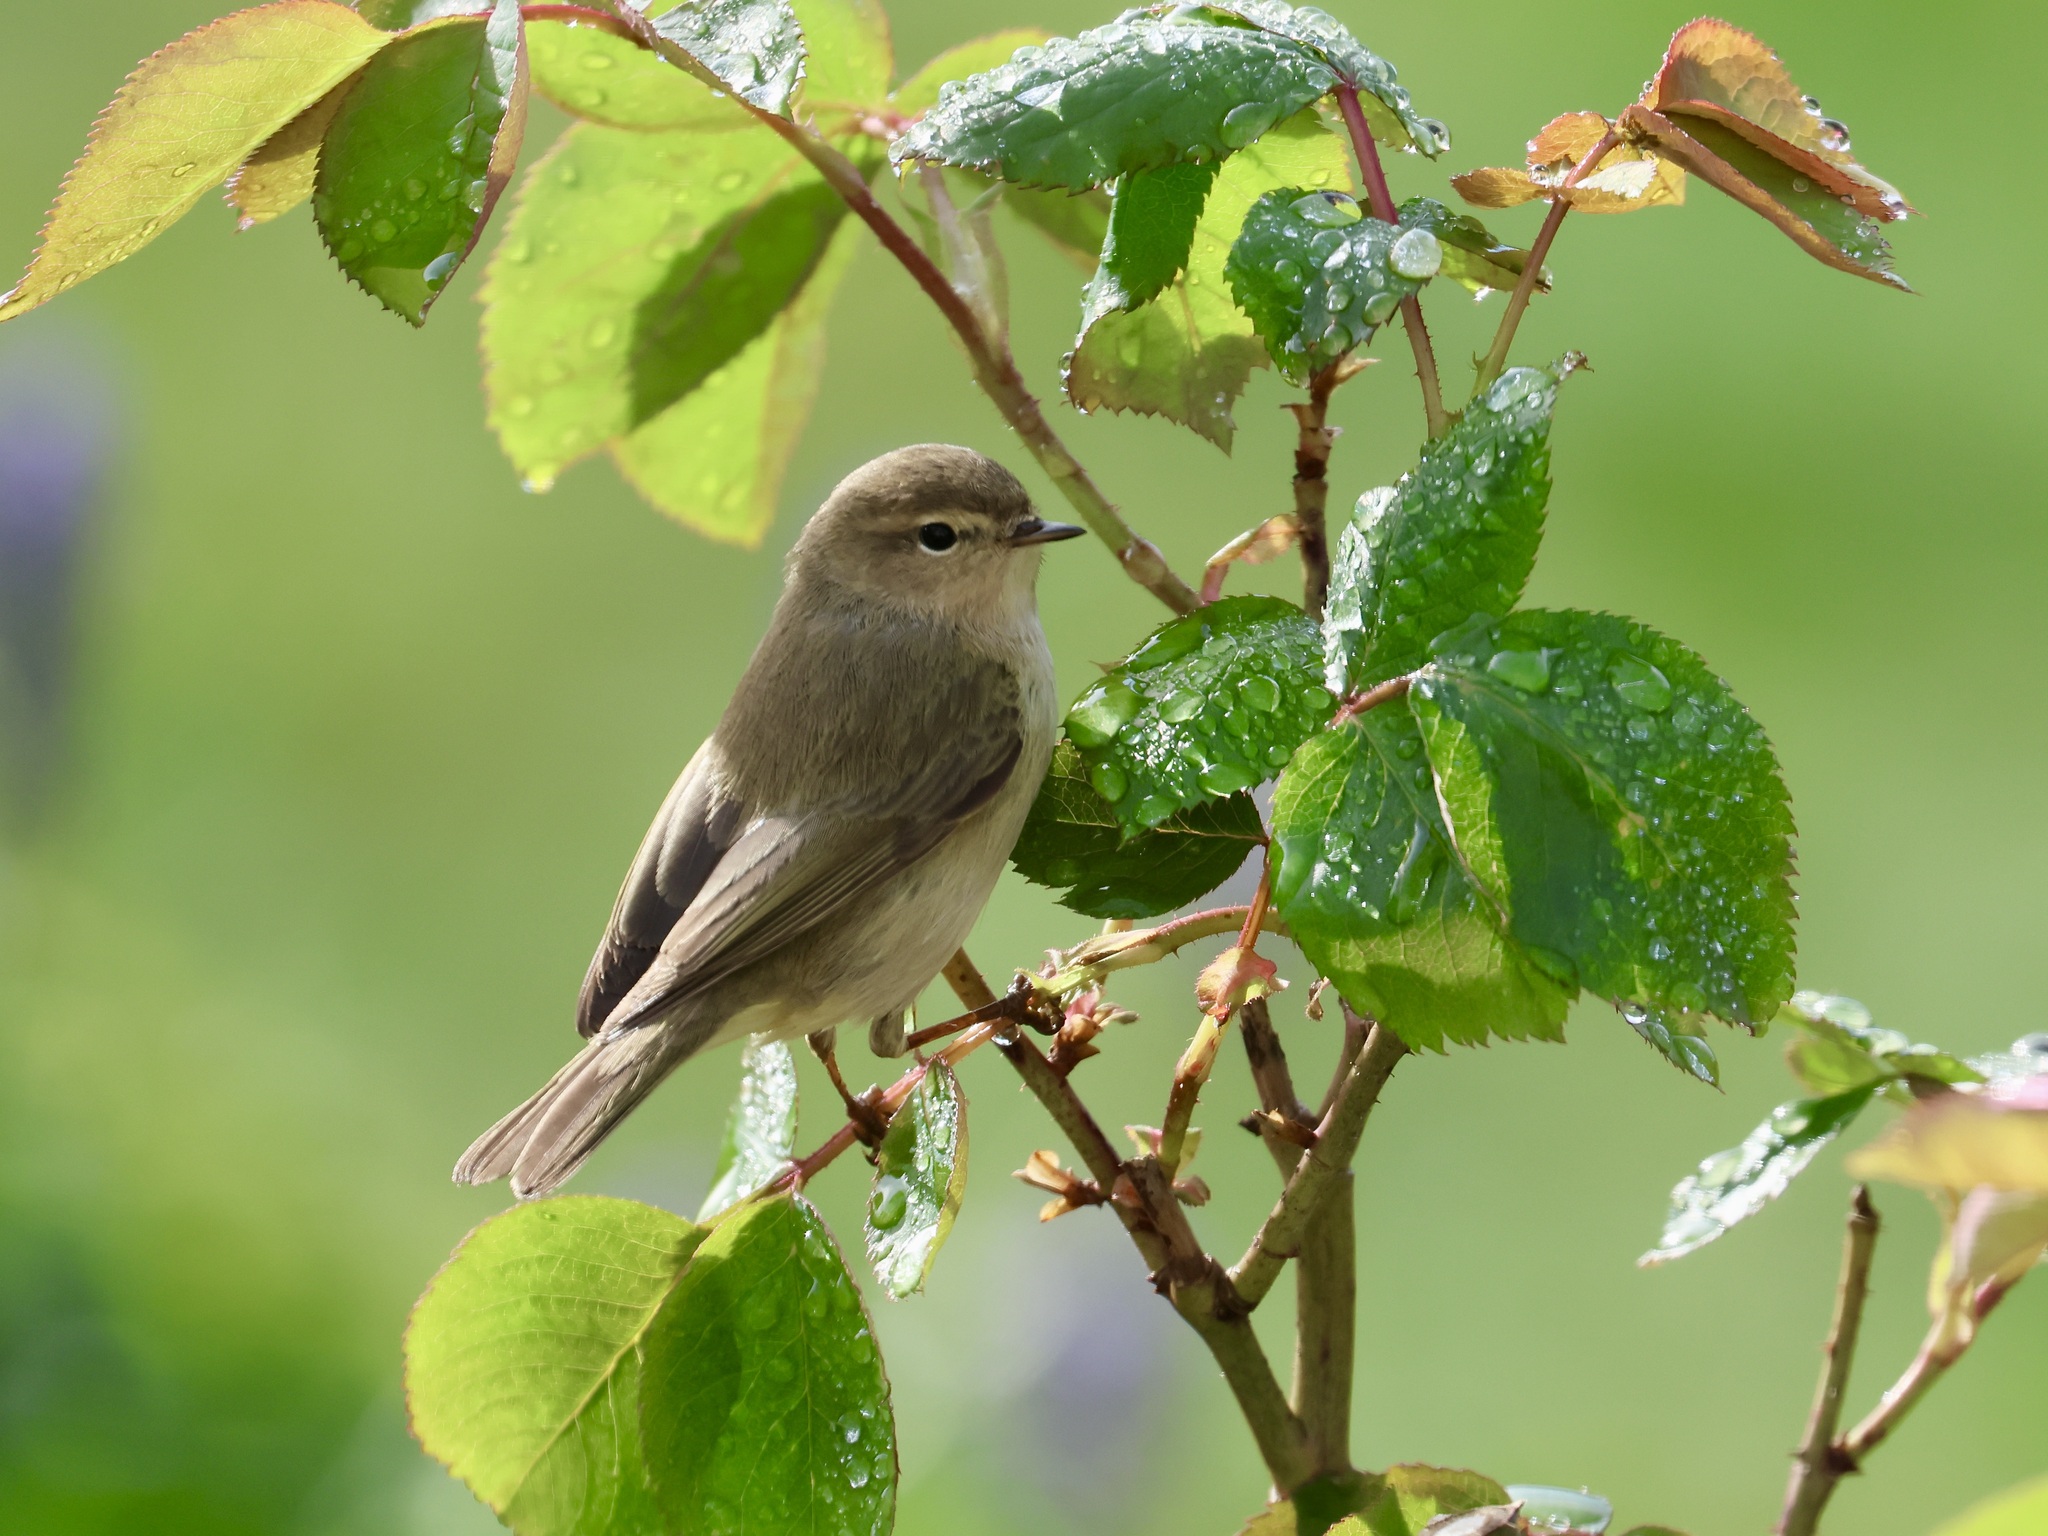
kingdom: Animalia
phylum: Chordata
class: Aves
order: Passeriformes
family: Phylloscopidae
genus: Phylloscopus
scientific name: Phylloscopus collybita
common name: Common chiffchaff
